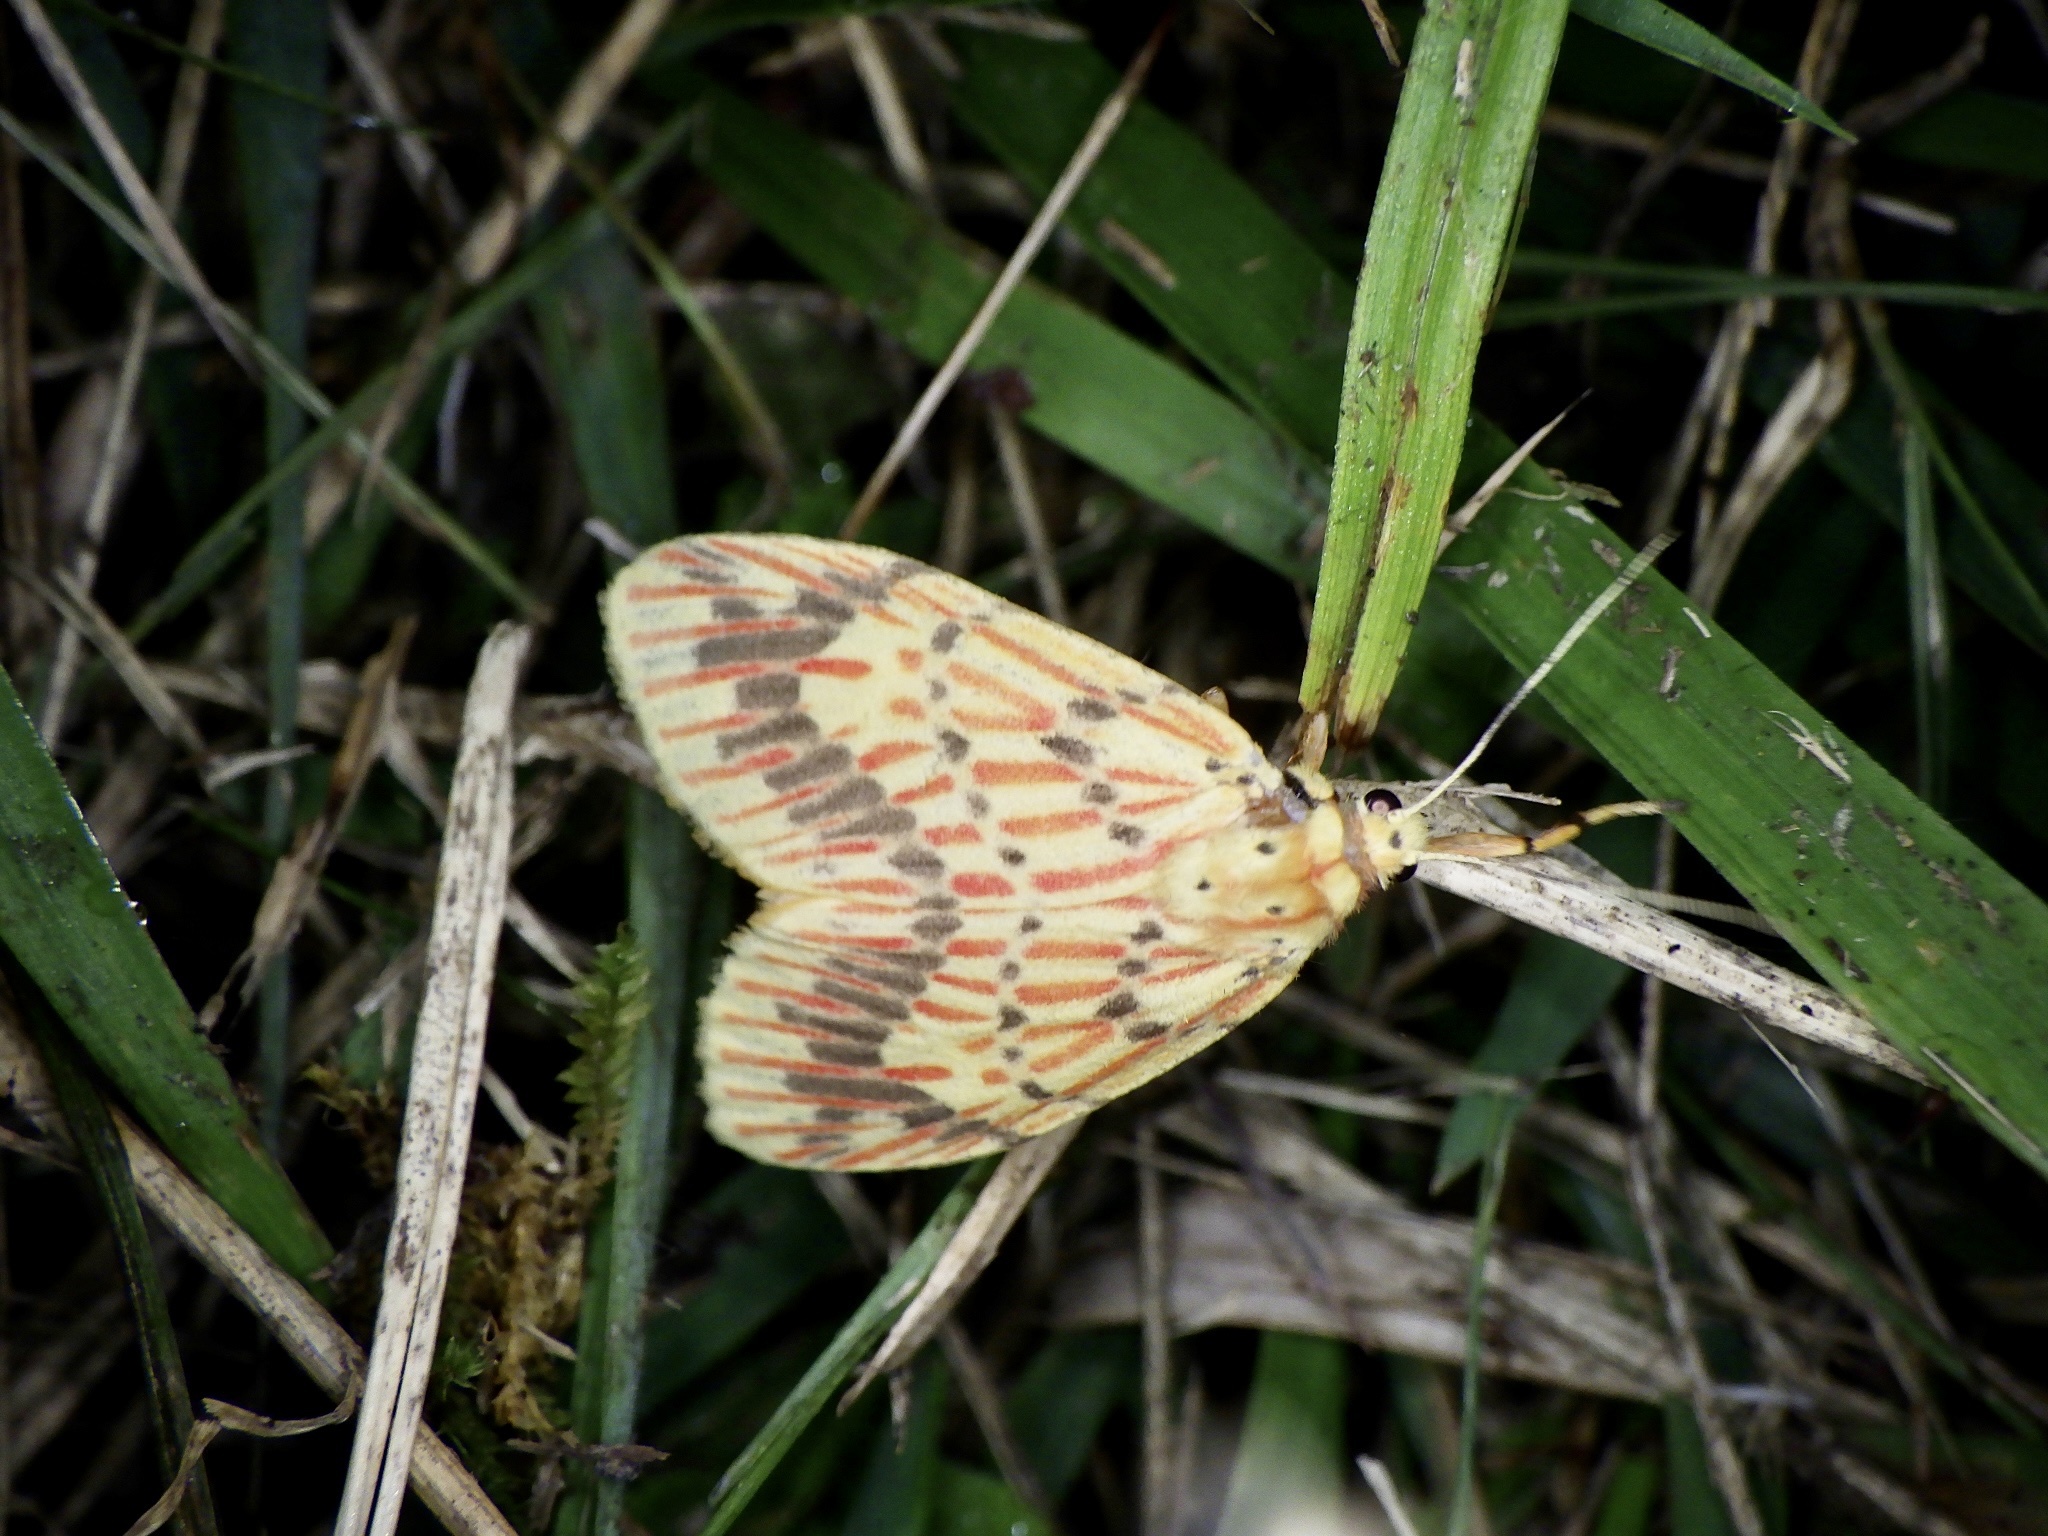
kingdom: Animalia
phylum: Arthropoda
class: Insecta
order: Lepidoptera
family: Erebidae
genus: Barsine
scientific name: Barsine striata
